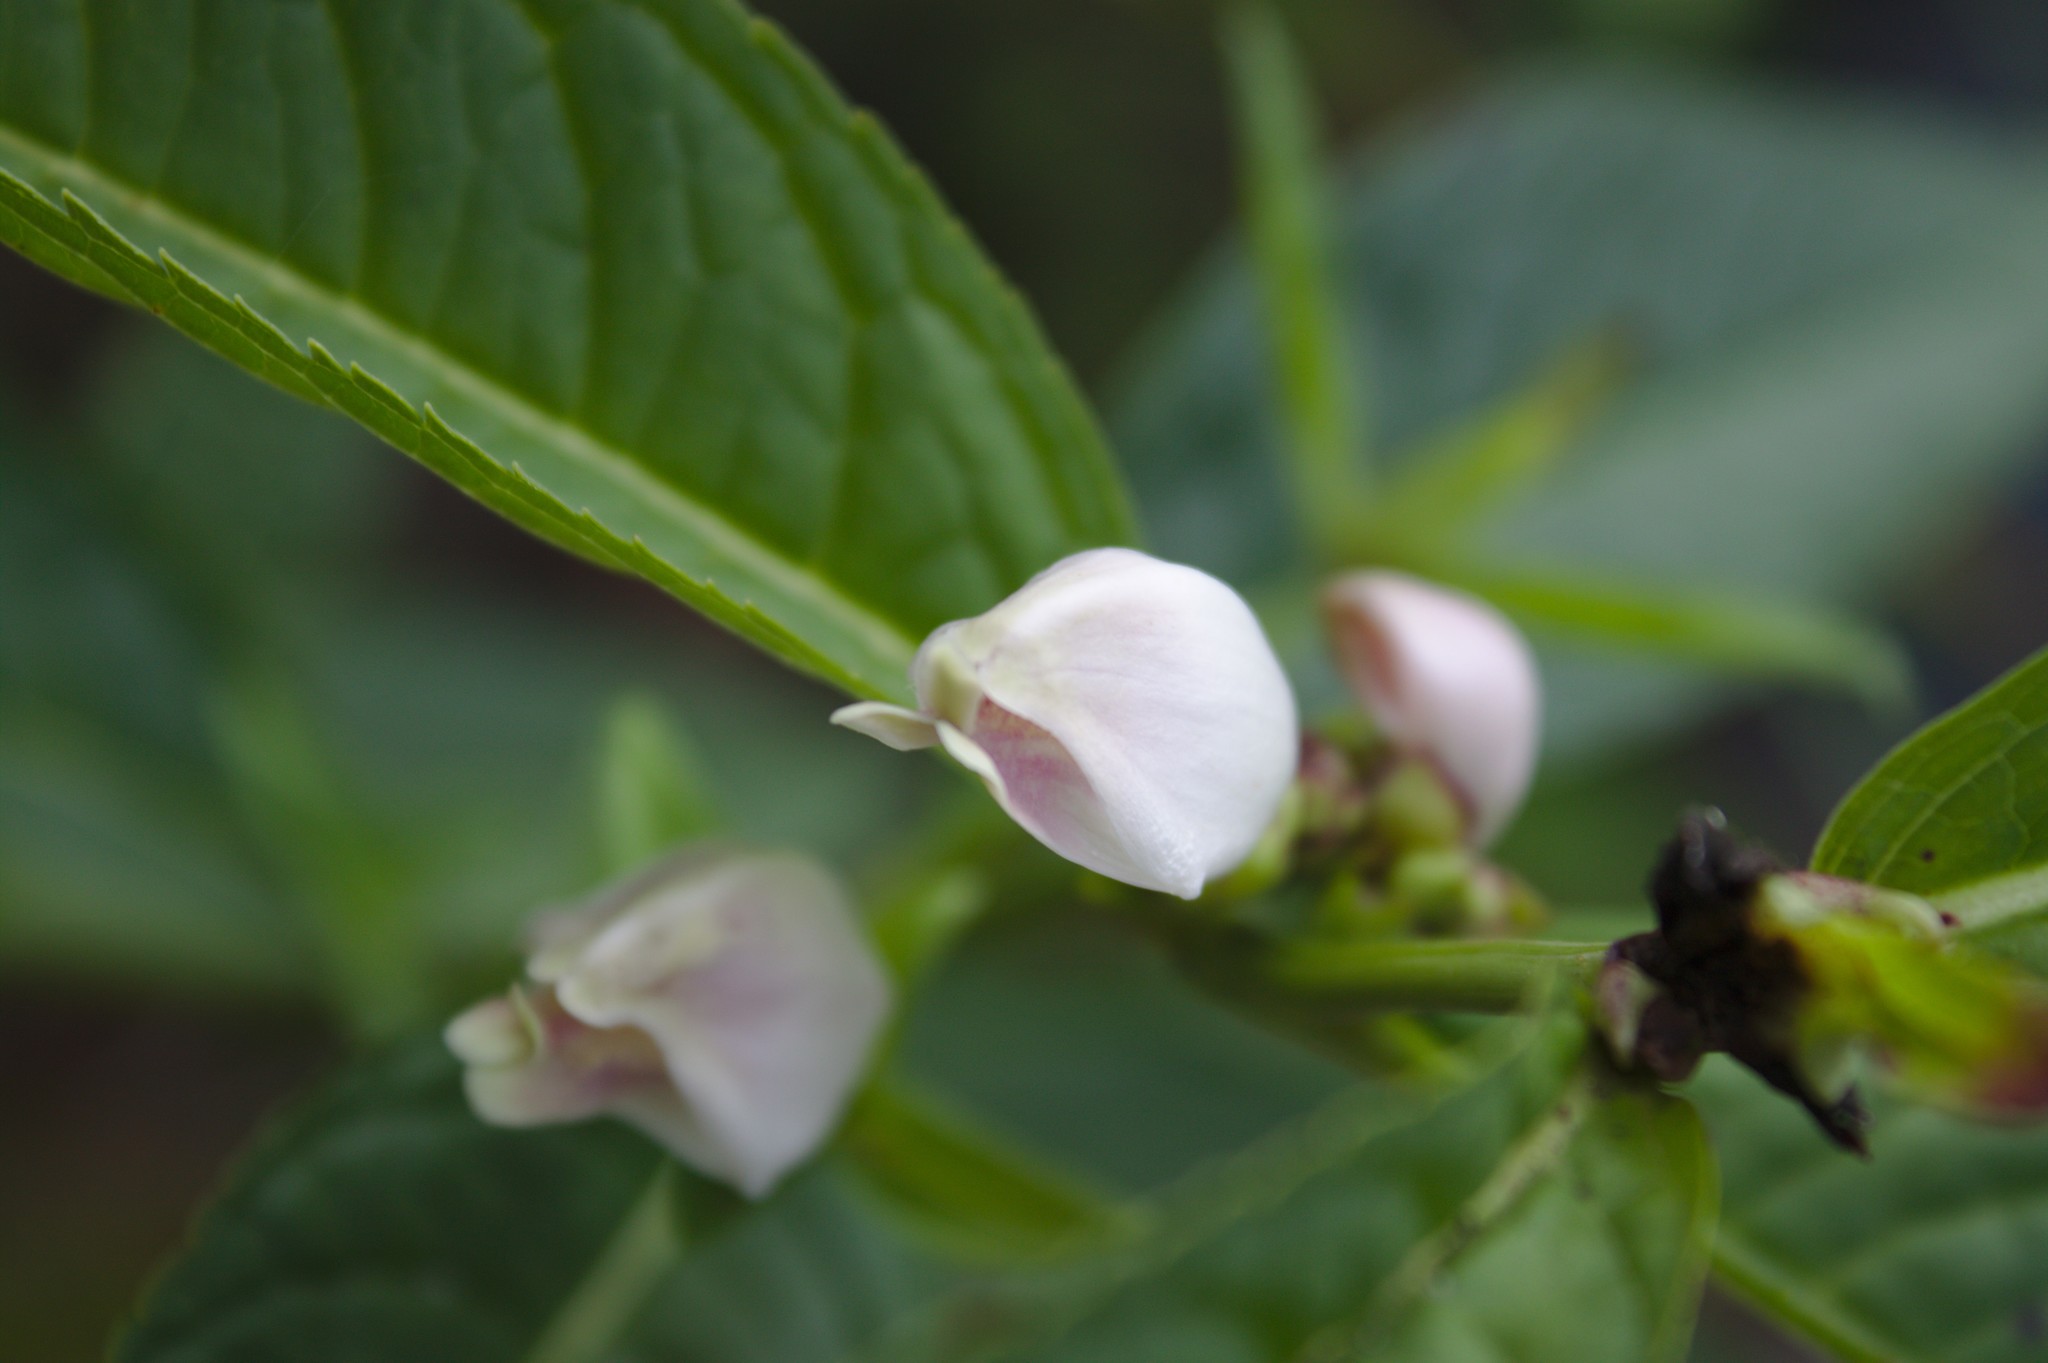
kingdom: Plantae
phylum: Tracheophyta
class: Magnoliopsida
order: Lamiales
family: Plantaginaceae
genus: Chelone
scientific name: Chelone glabra
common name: Snakehead
